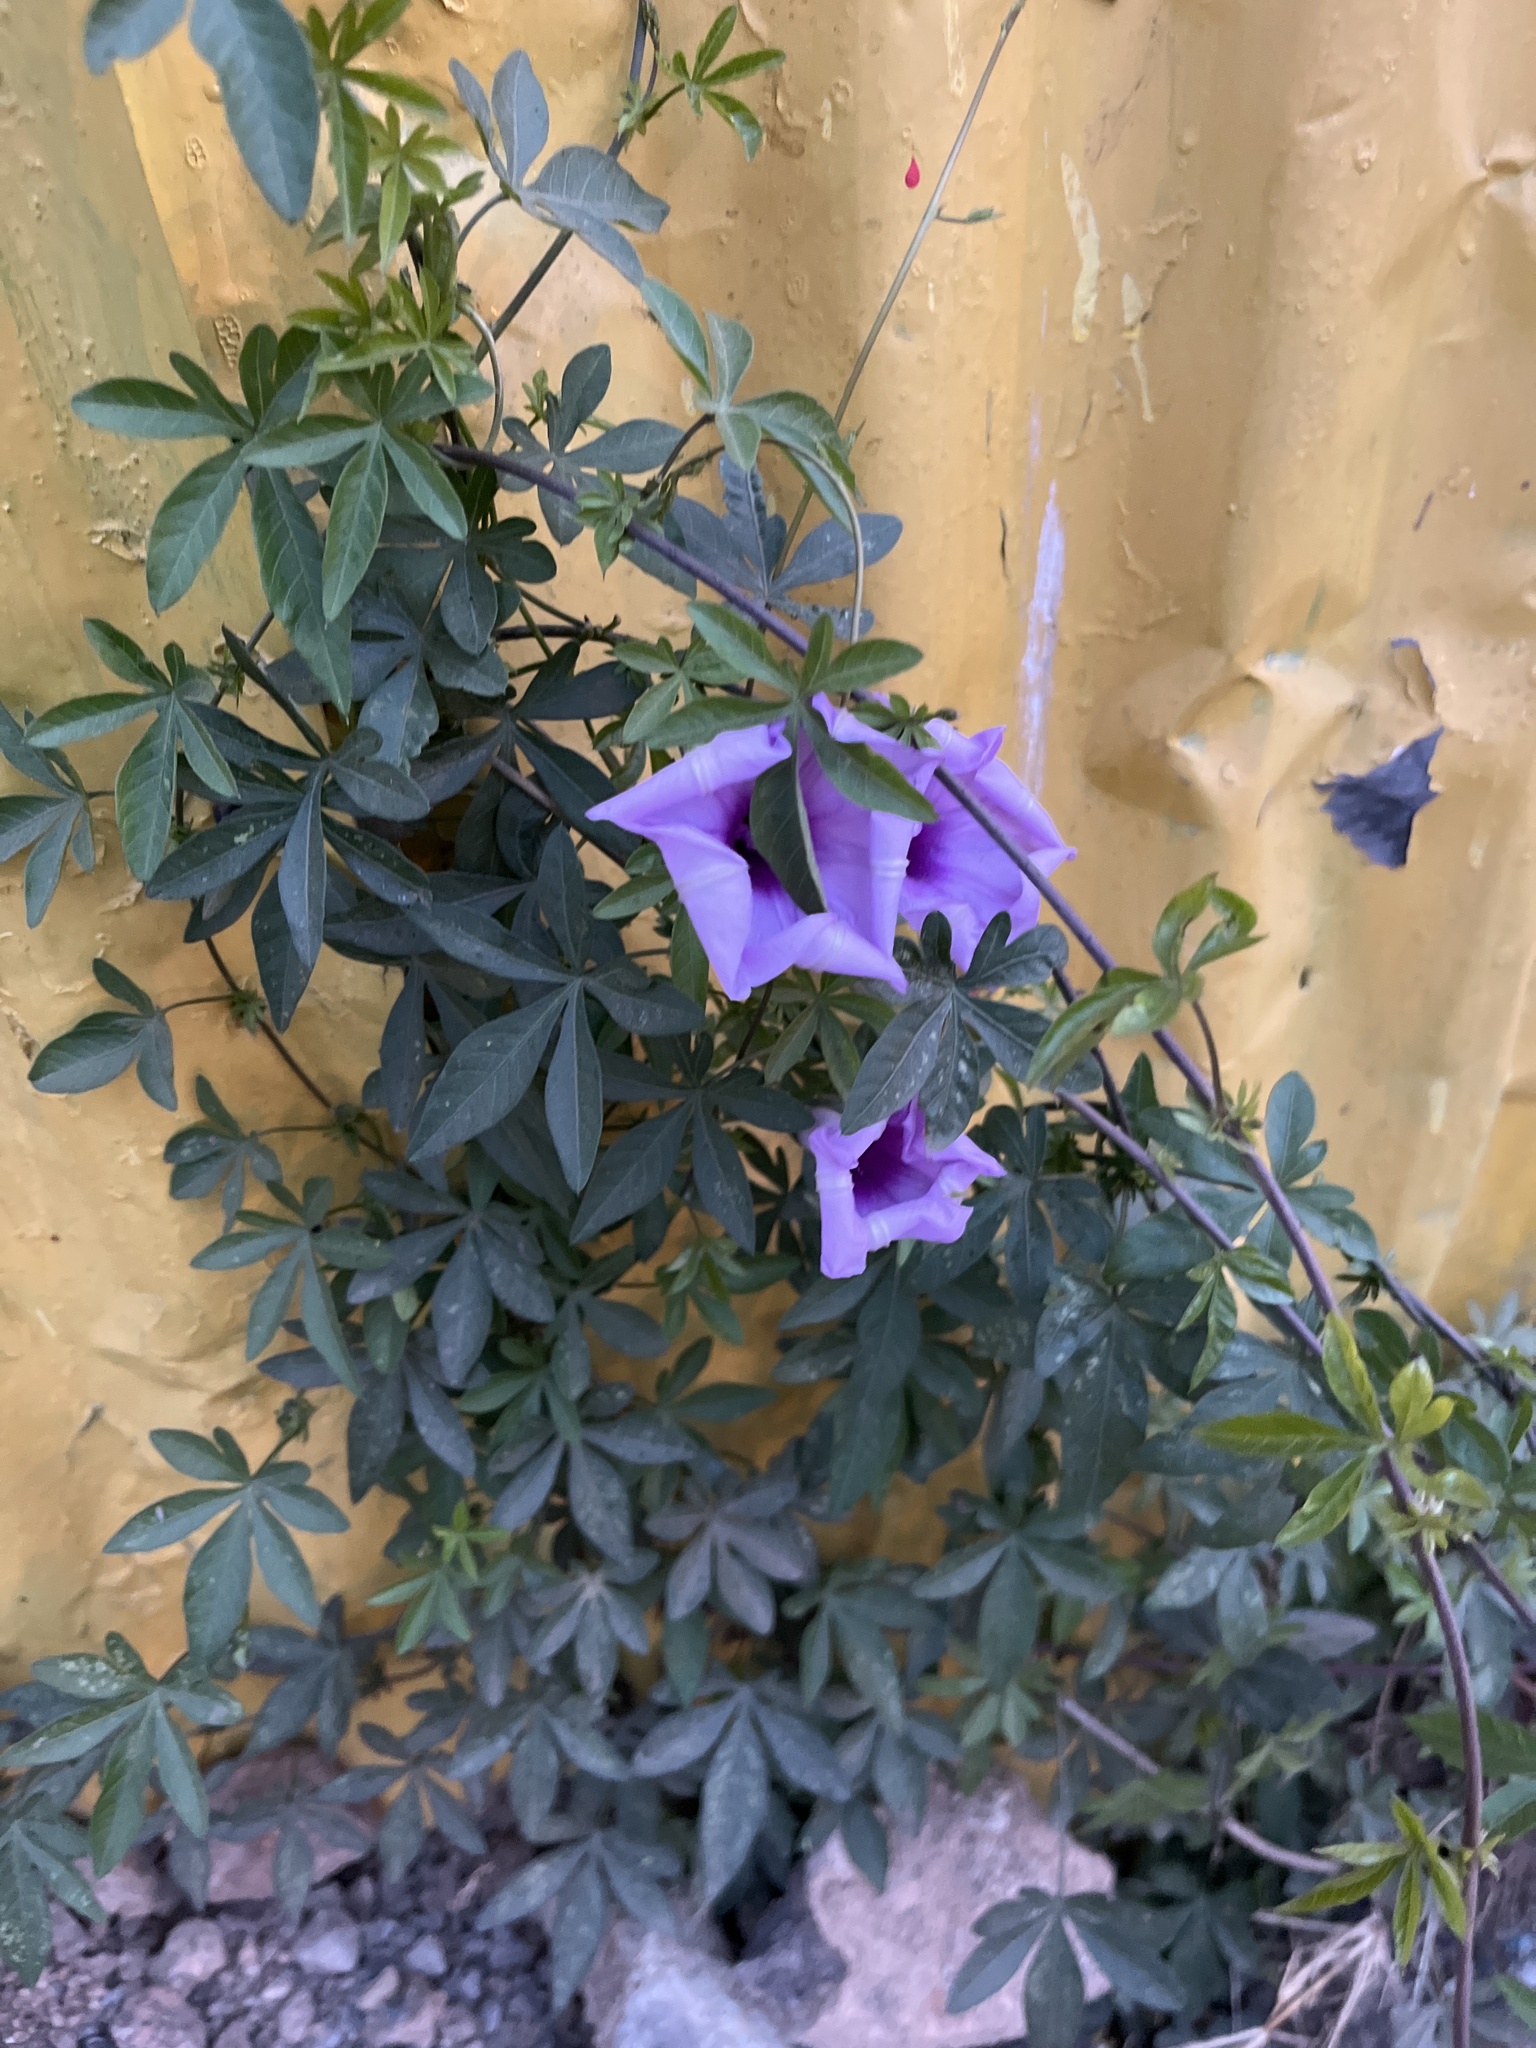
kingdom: Plantae
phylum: Tracheophyta
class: Magnoliopsida
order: Solanales
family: Convolvulaceae
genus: Ipomoea
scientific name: Ipomoea cairica
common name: Mile a minute vine
